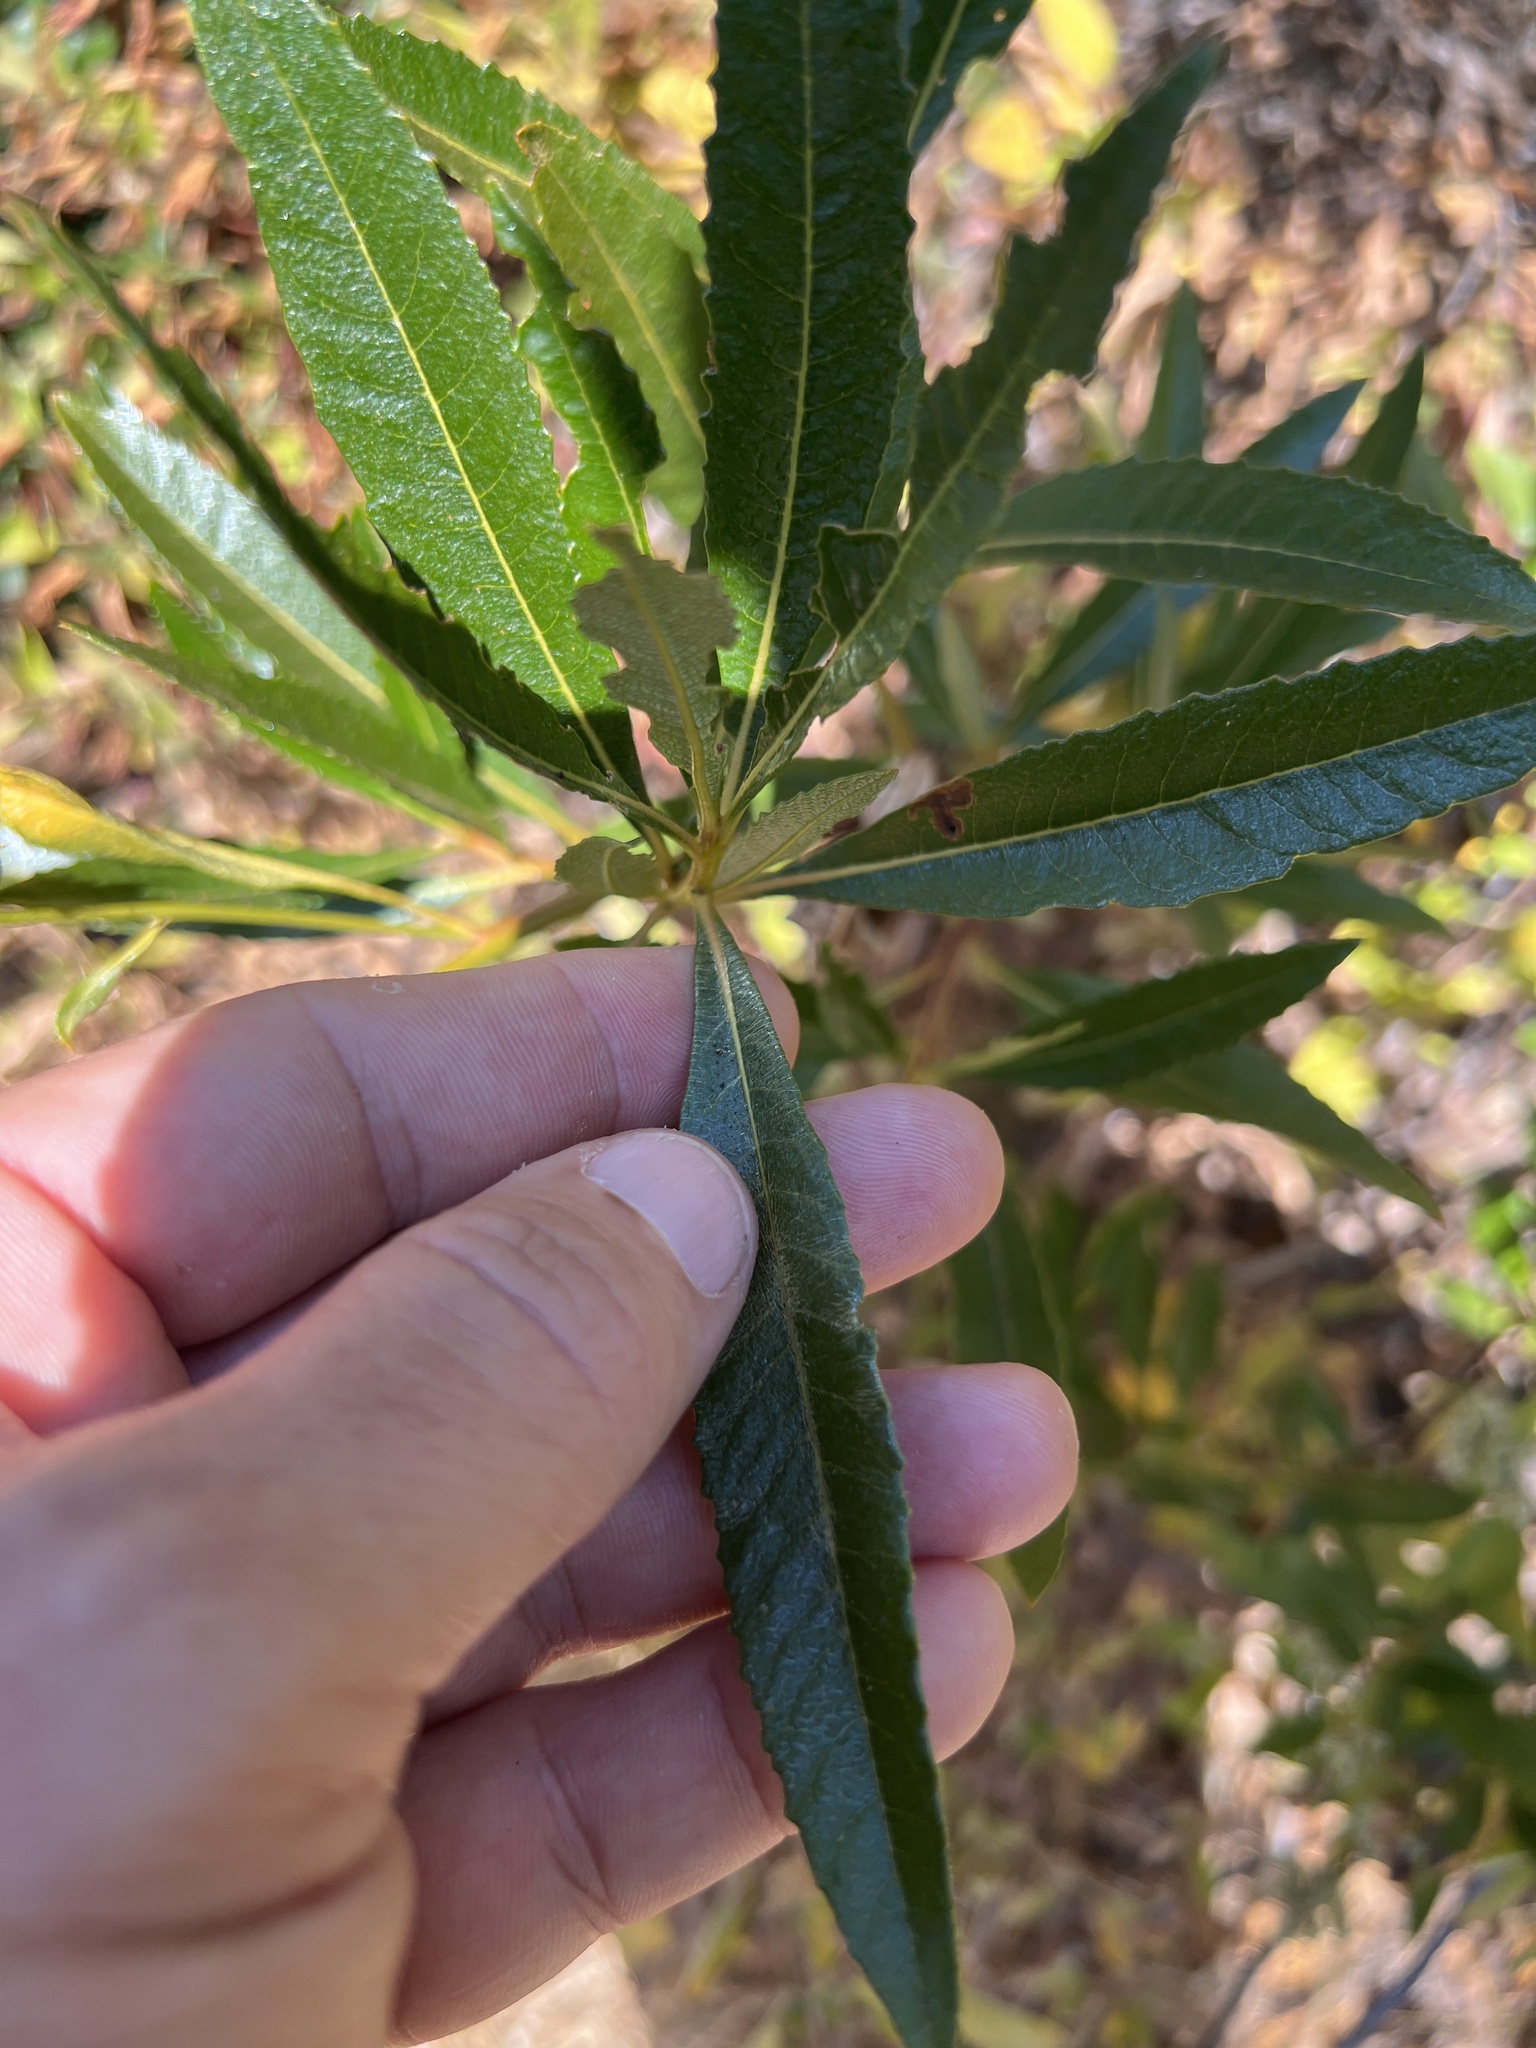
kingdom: Plantae
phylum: Tracheophyta
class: Magnoliopsida
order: Boraginales
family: Namaceae
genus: Eriodictyon
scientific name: Eriodictyon californicum
